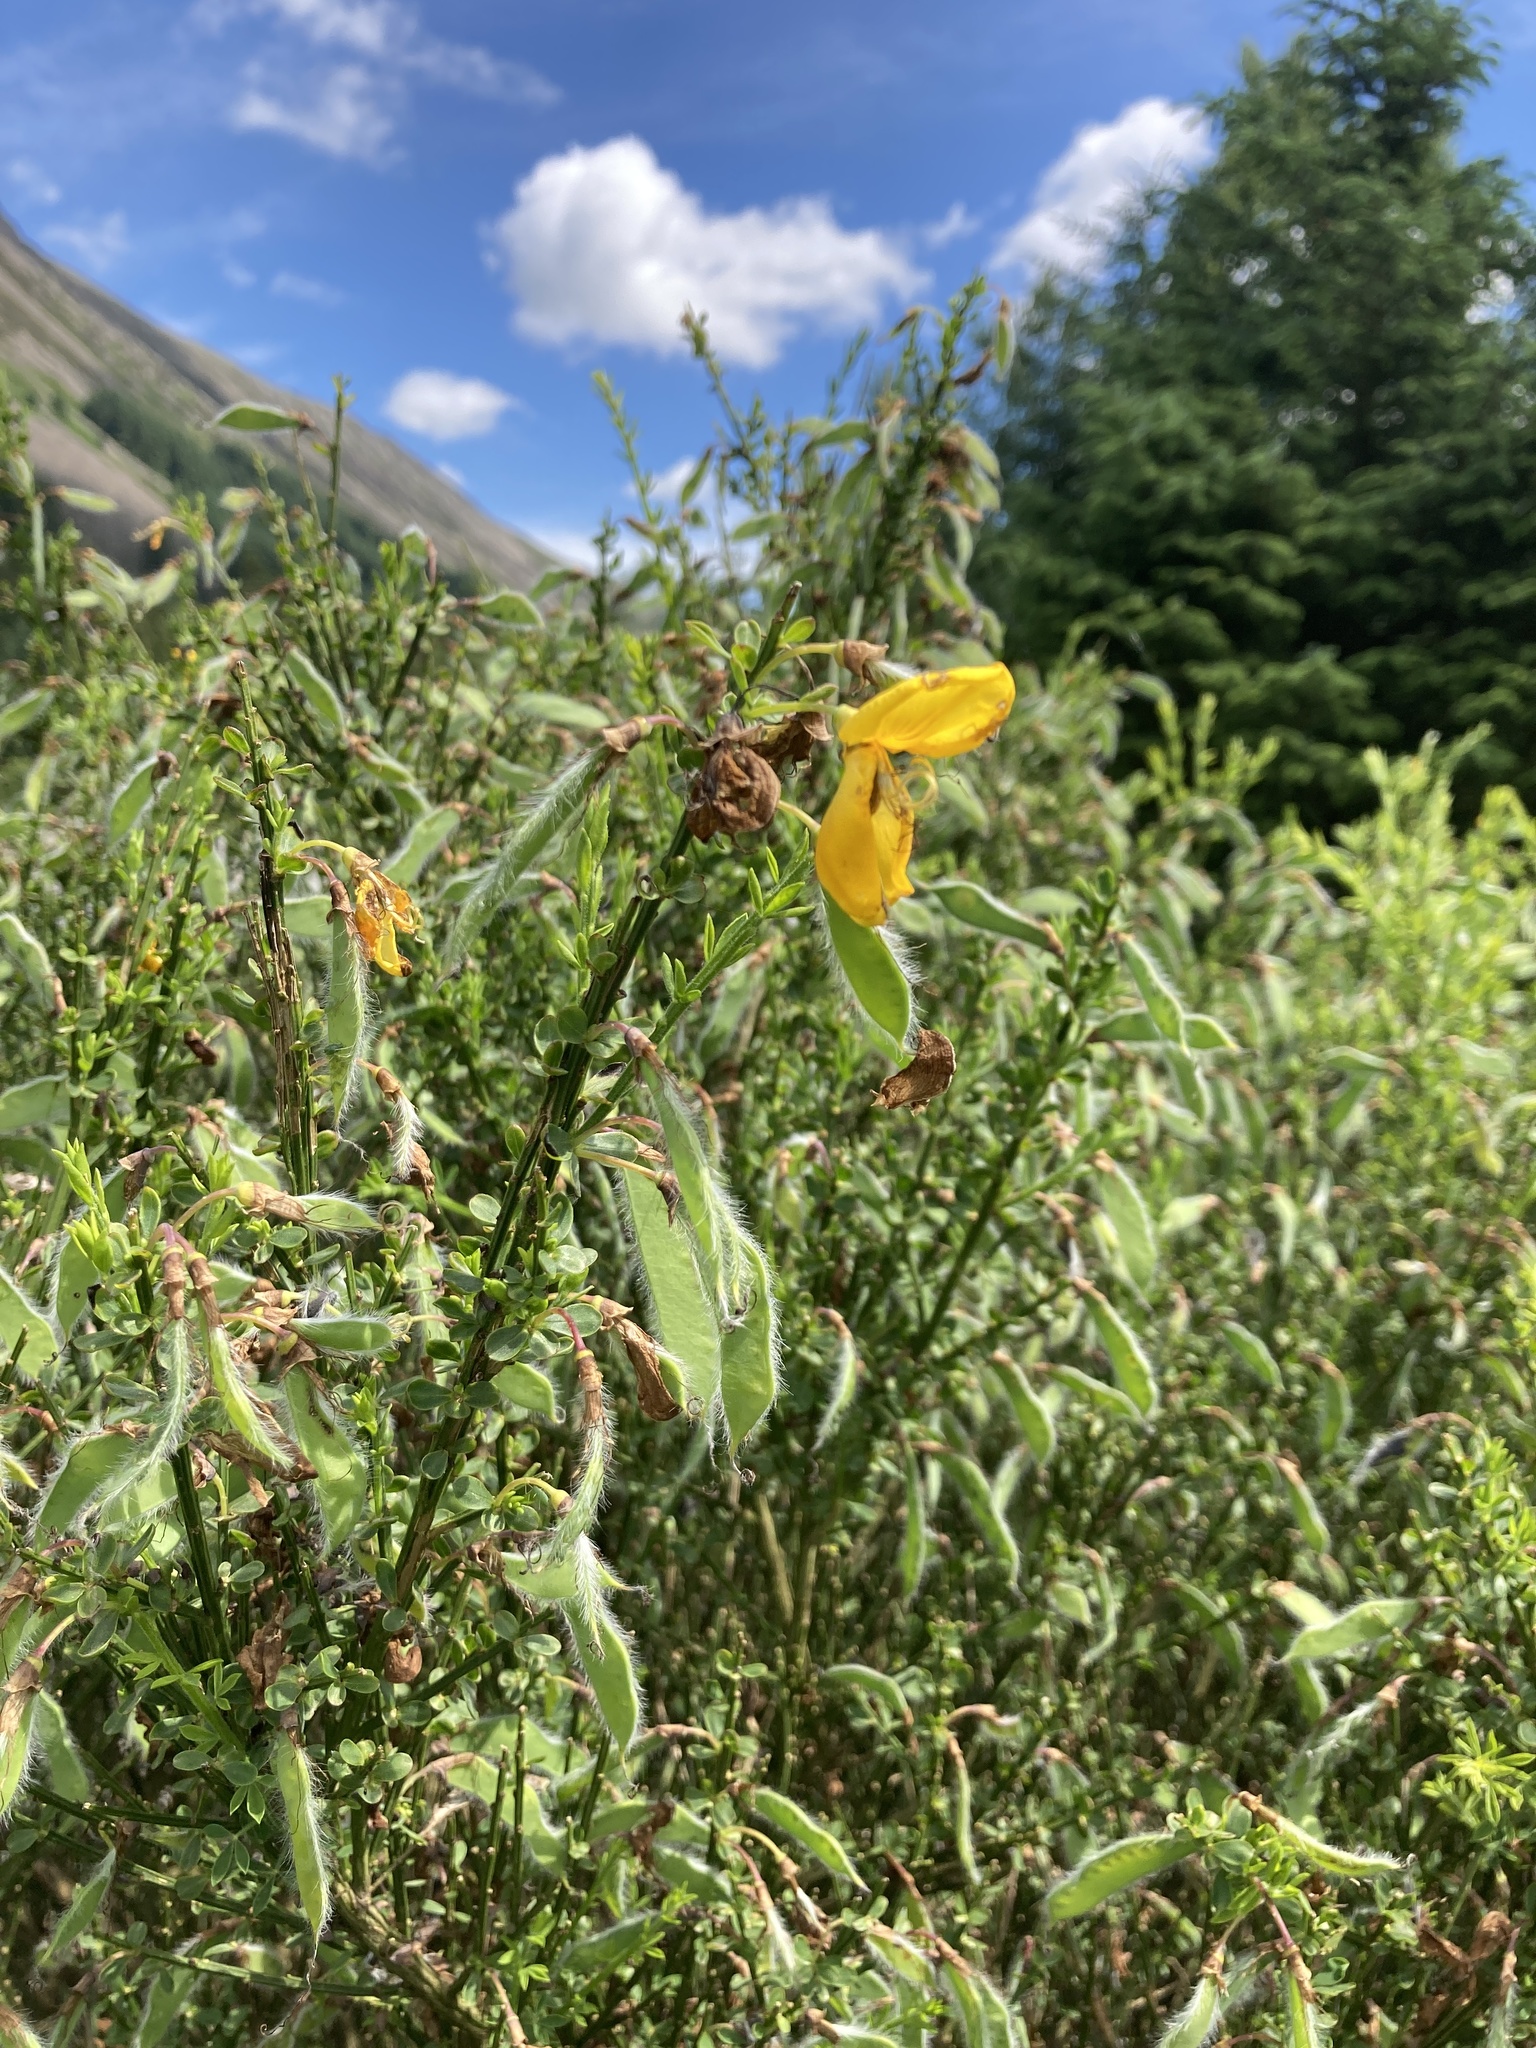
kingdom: Plantae
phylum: Tracheophyta
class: Magnoliopsida
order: Fabales
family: Fabaceae
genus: Cytisus
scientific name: Cytisus scoparius
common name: Scotch broom
